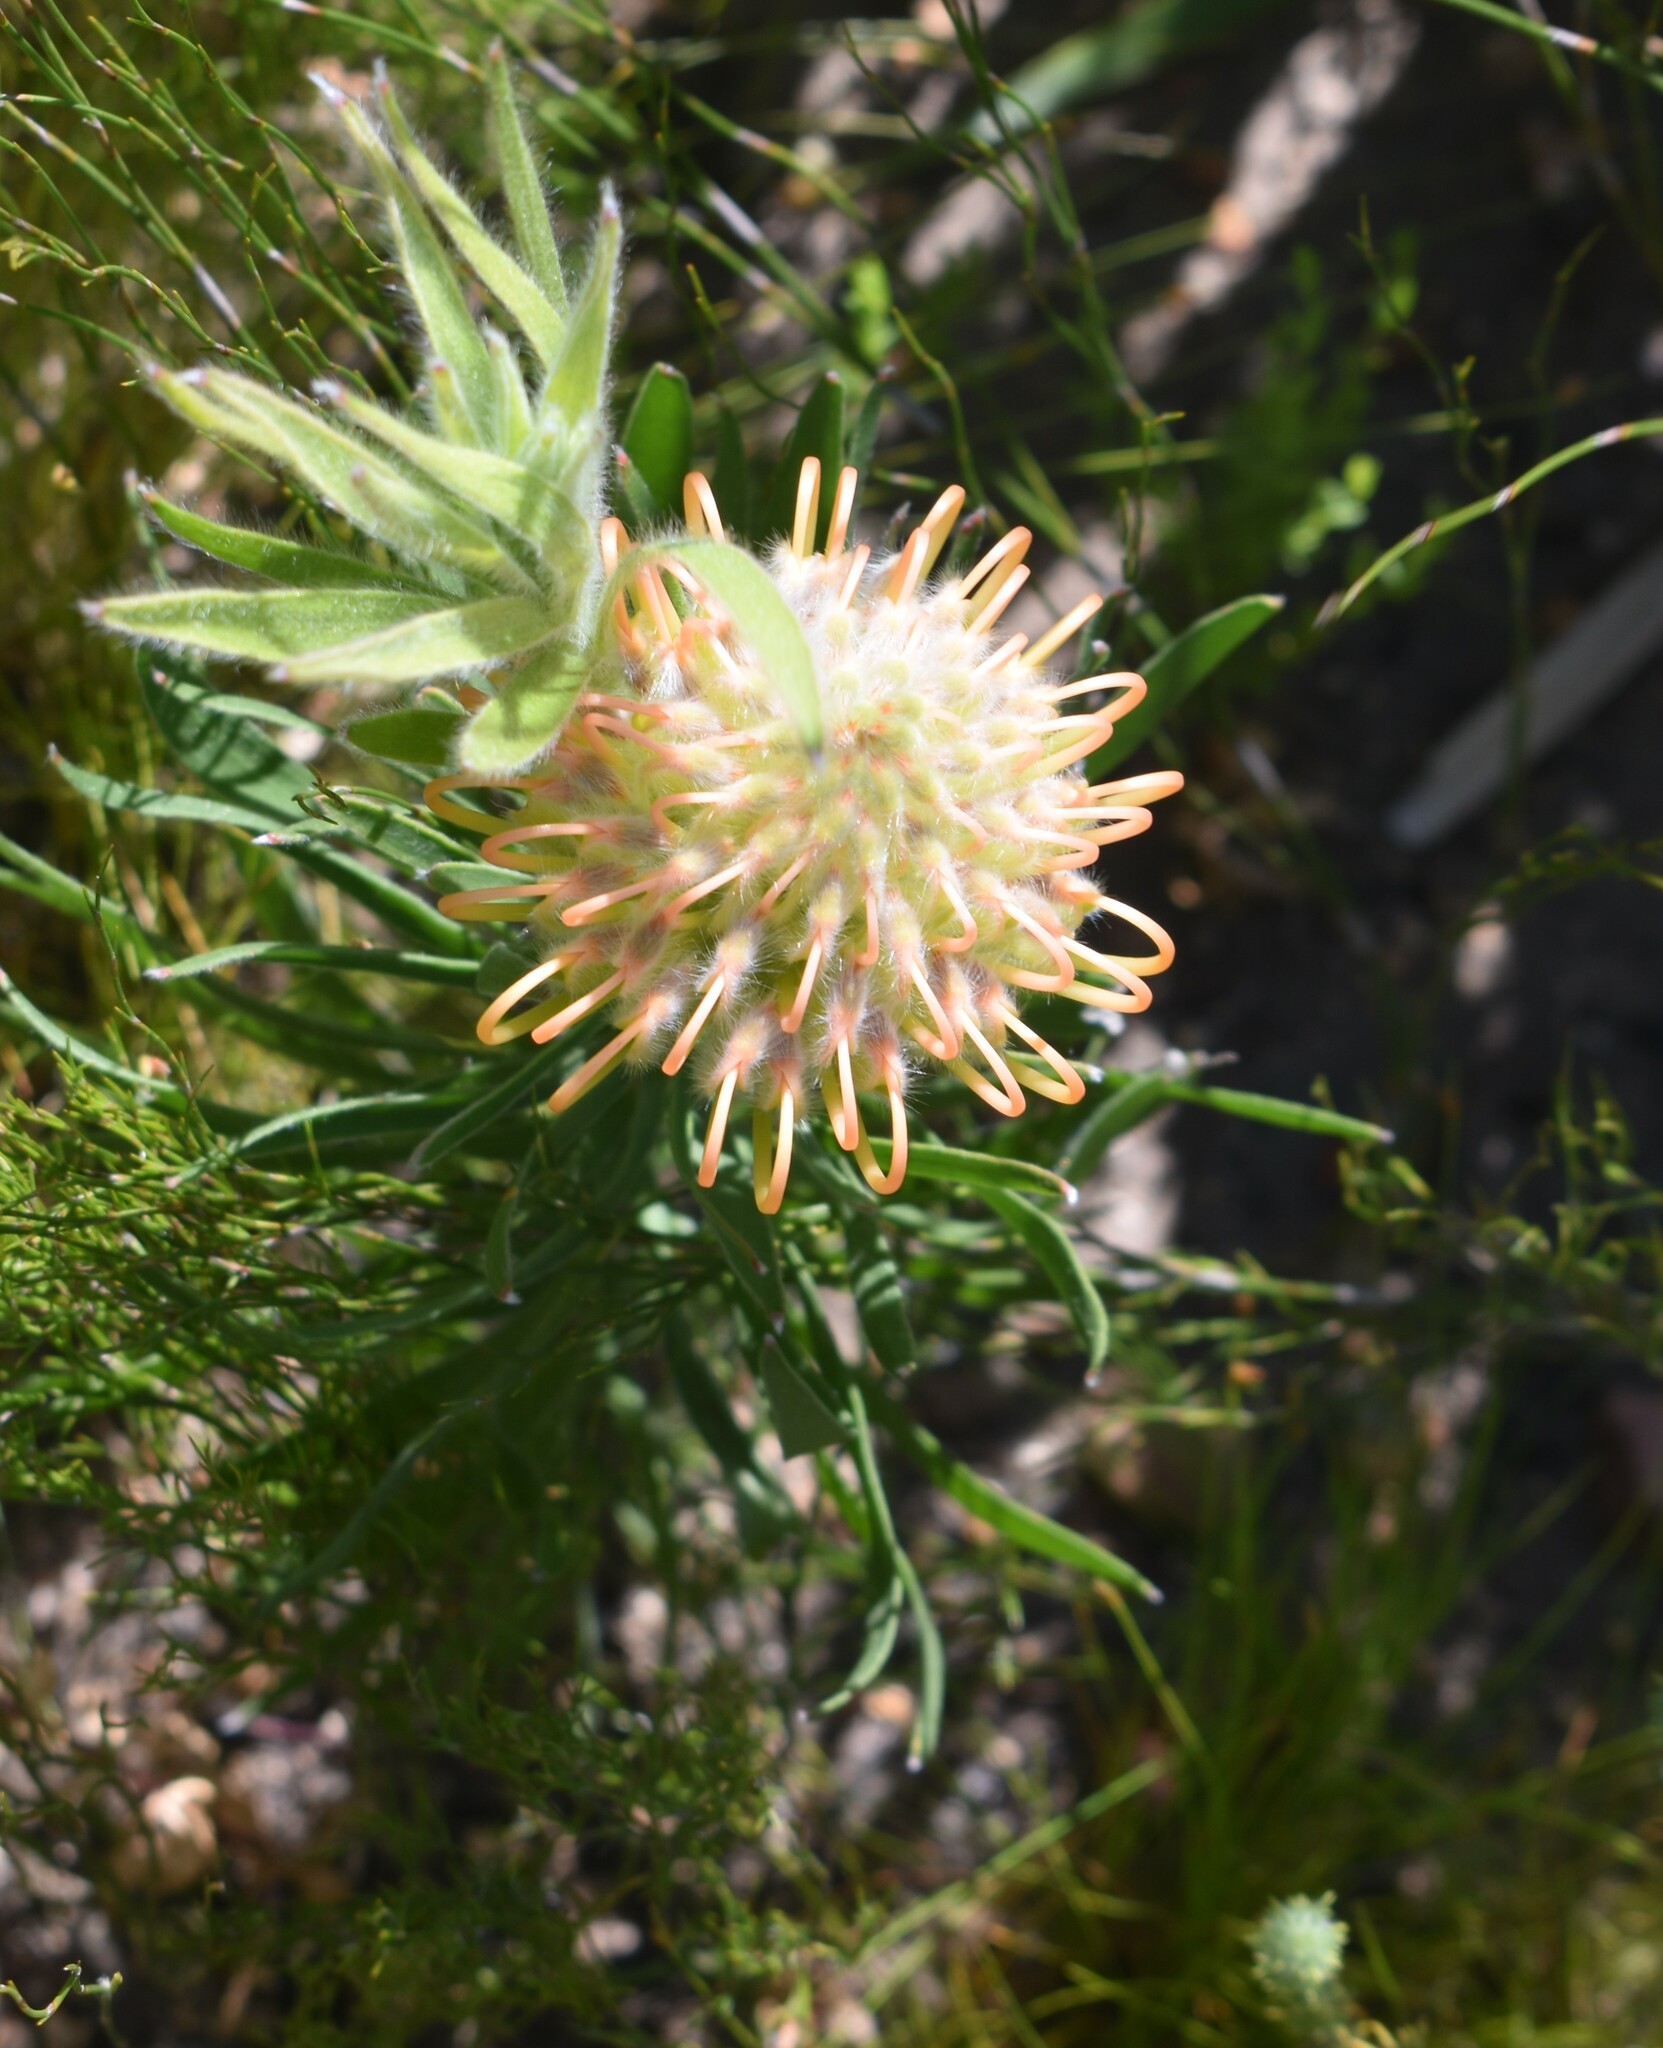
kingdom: Plantae
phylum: Tracheophyta
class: Magnoliopsida
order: Proteales
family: Proteaceae
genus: Leucospermum
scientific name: Leucospermum lineare
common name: Needle-leaf pincushion
